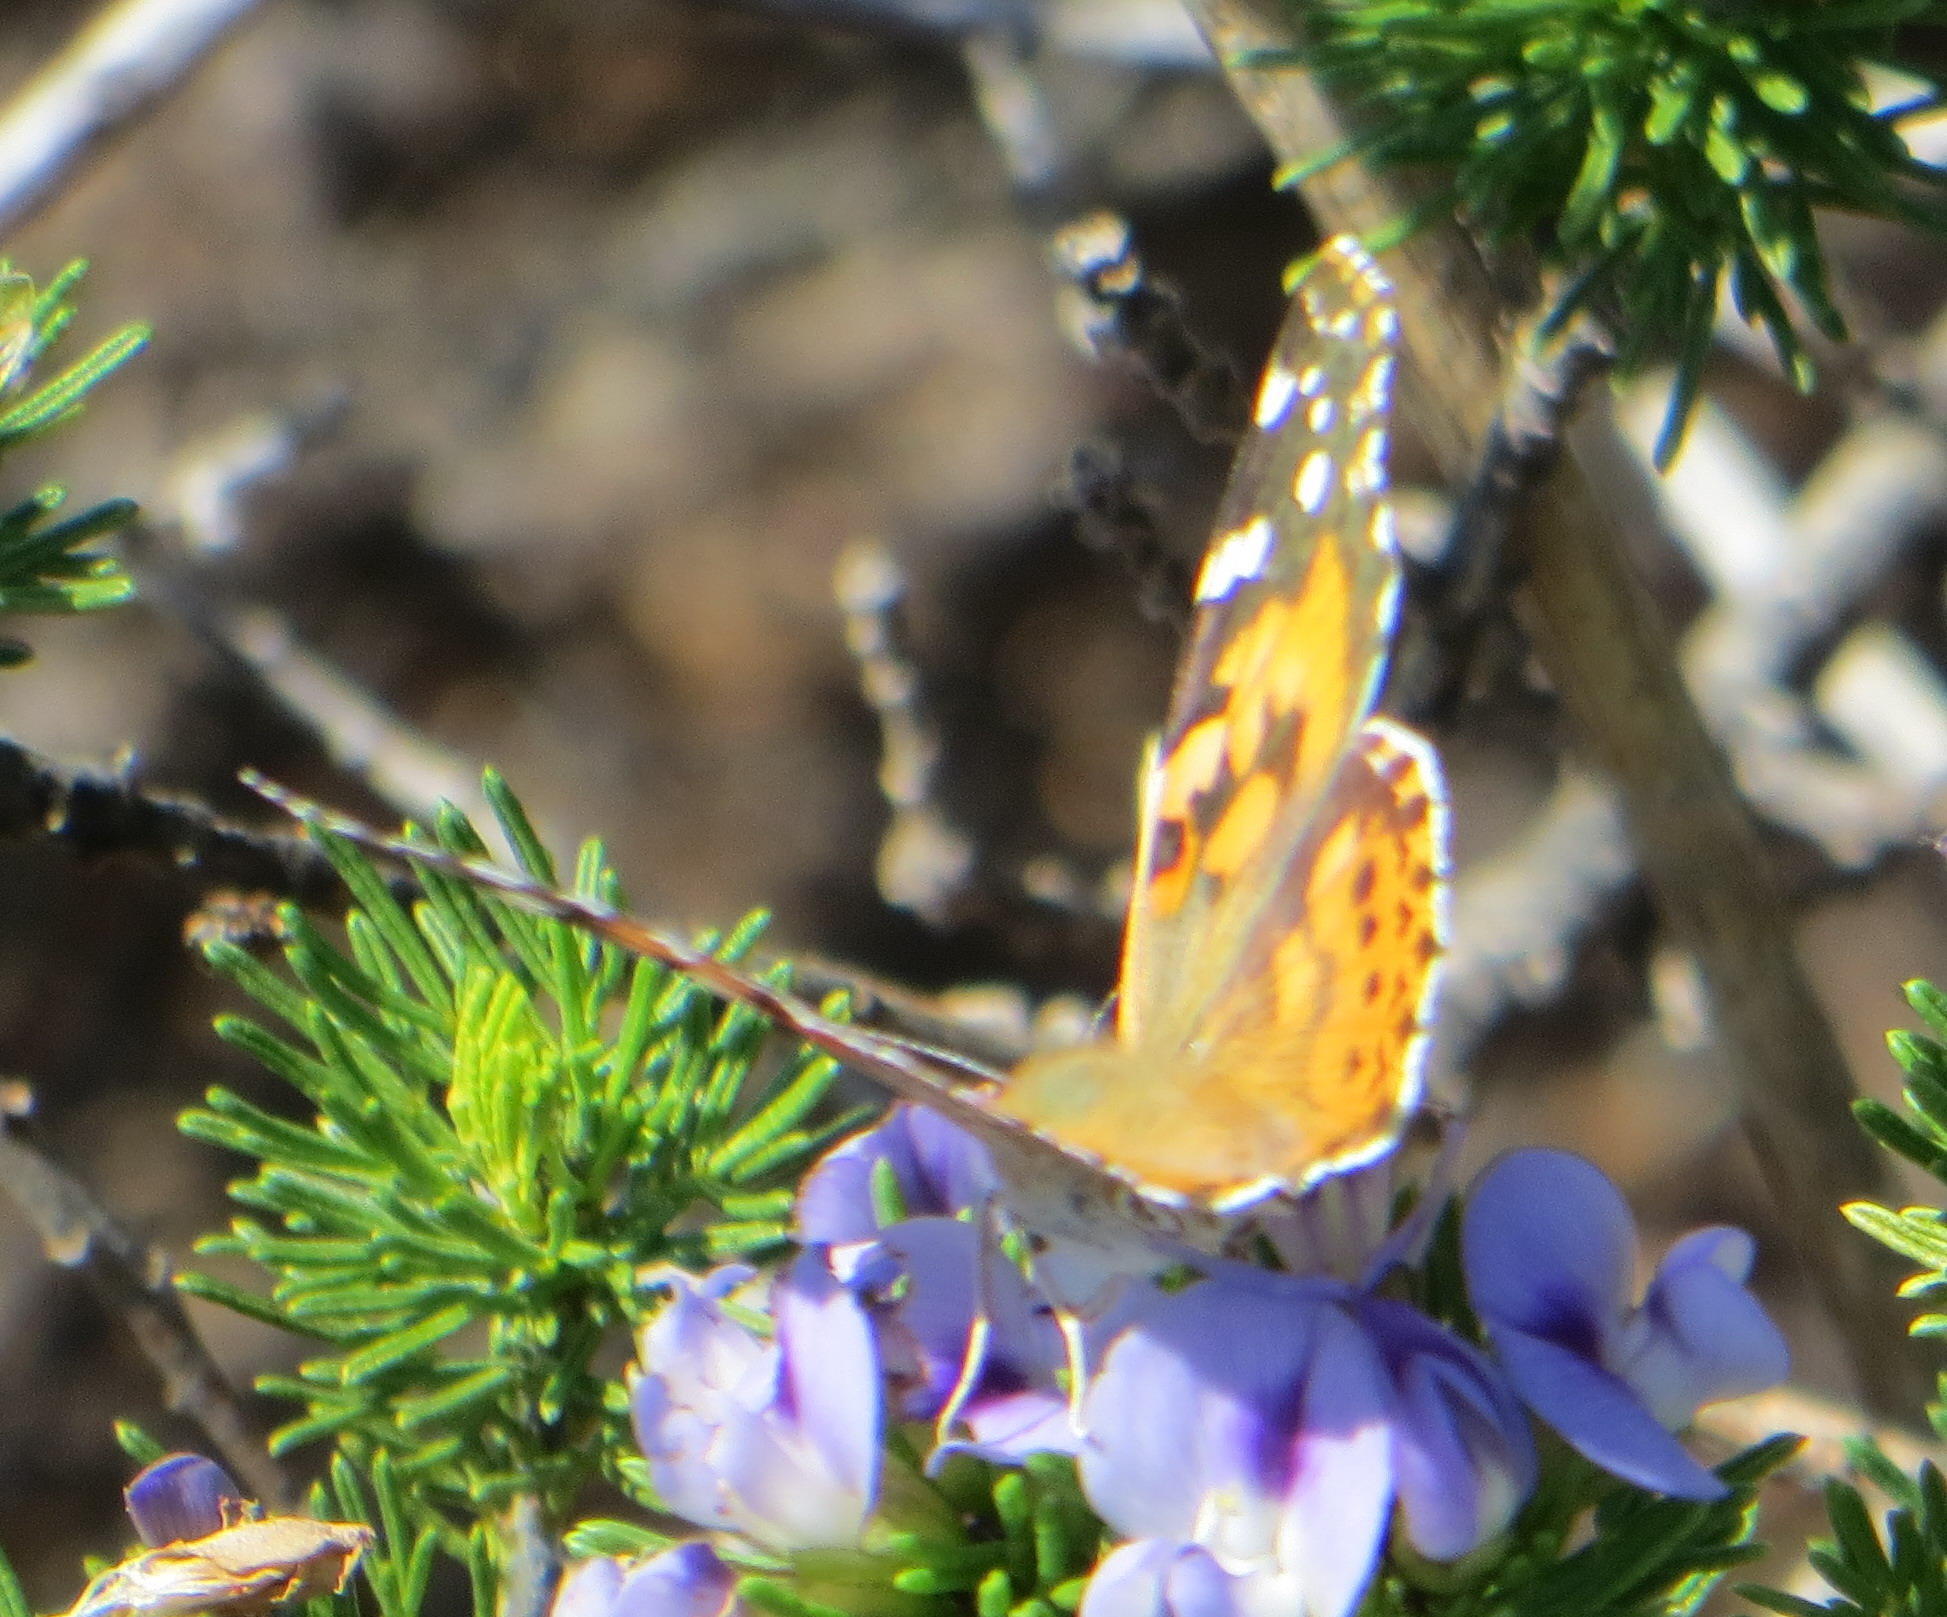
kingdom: Animalia
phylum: Arthropoda
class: Insecta
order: Lepidoptera
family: Nymphalidae
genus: Vanessa
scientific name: Vanessa cardui
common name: Painted lady
